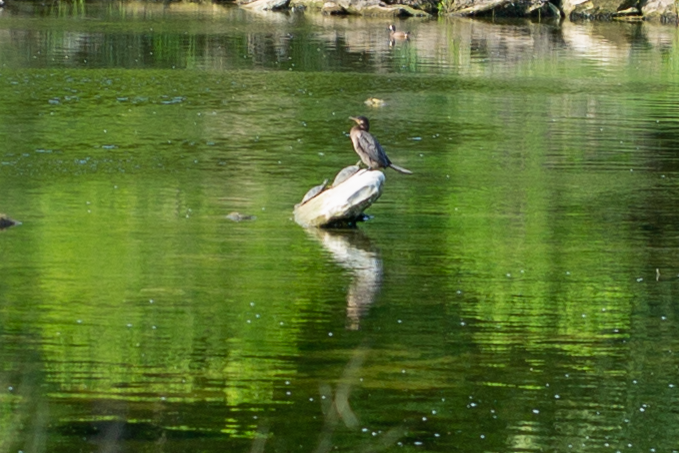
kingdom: Animalia
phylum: Chordata
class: Aves
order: Suliformes
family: Phalacrocoracidae
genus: Phalacrocorax
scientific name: Phalacrocorax brasilianus
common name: Neotropic cormorant
